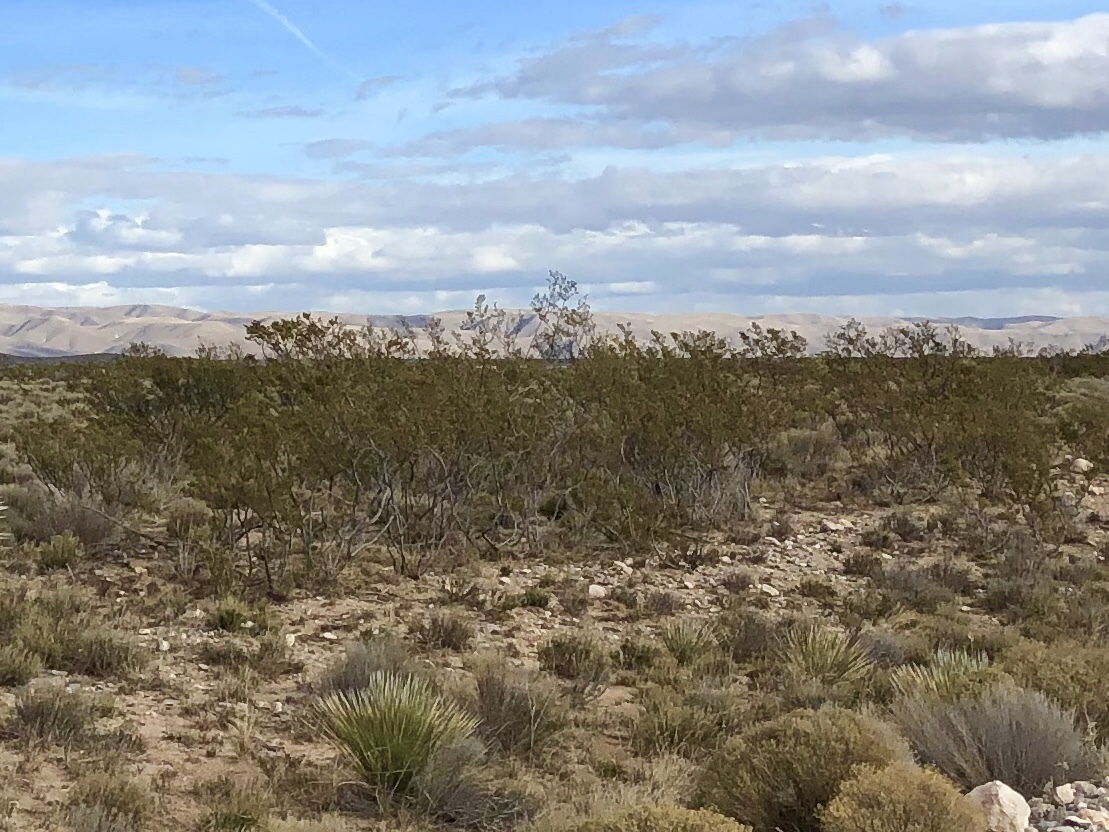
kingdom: Plantae
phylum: Tracheophyta
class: Magnoliopsida
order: Zygophyllales
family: Zygophyllaceae
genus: Larrea
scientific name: Larrea tridentata
